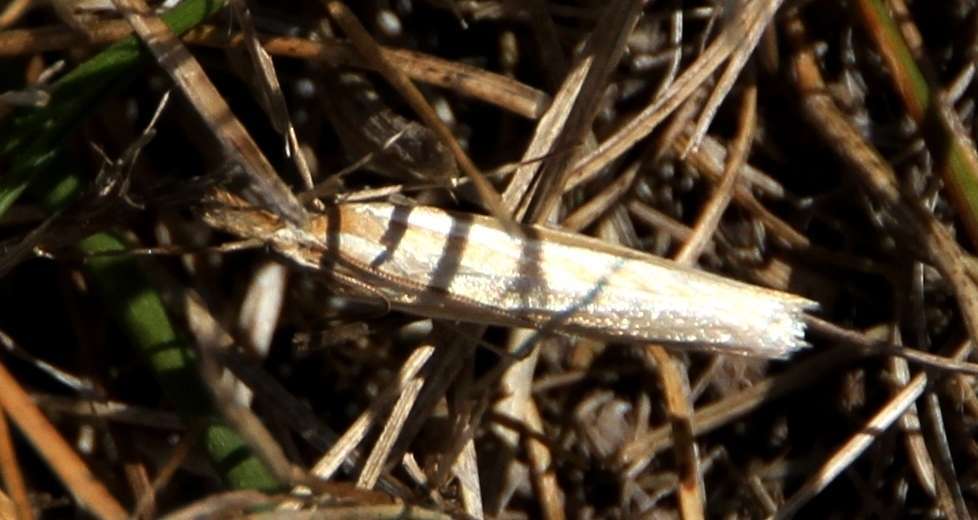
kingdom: Animalia
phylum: Arthropoda
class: Insecta
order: Lepidoptera
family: Crambidae
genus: Hednota
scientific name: Hednota grammellus
